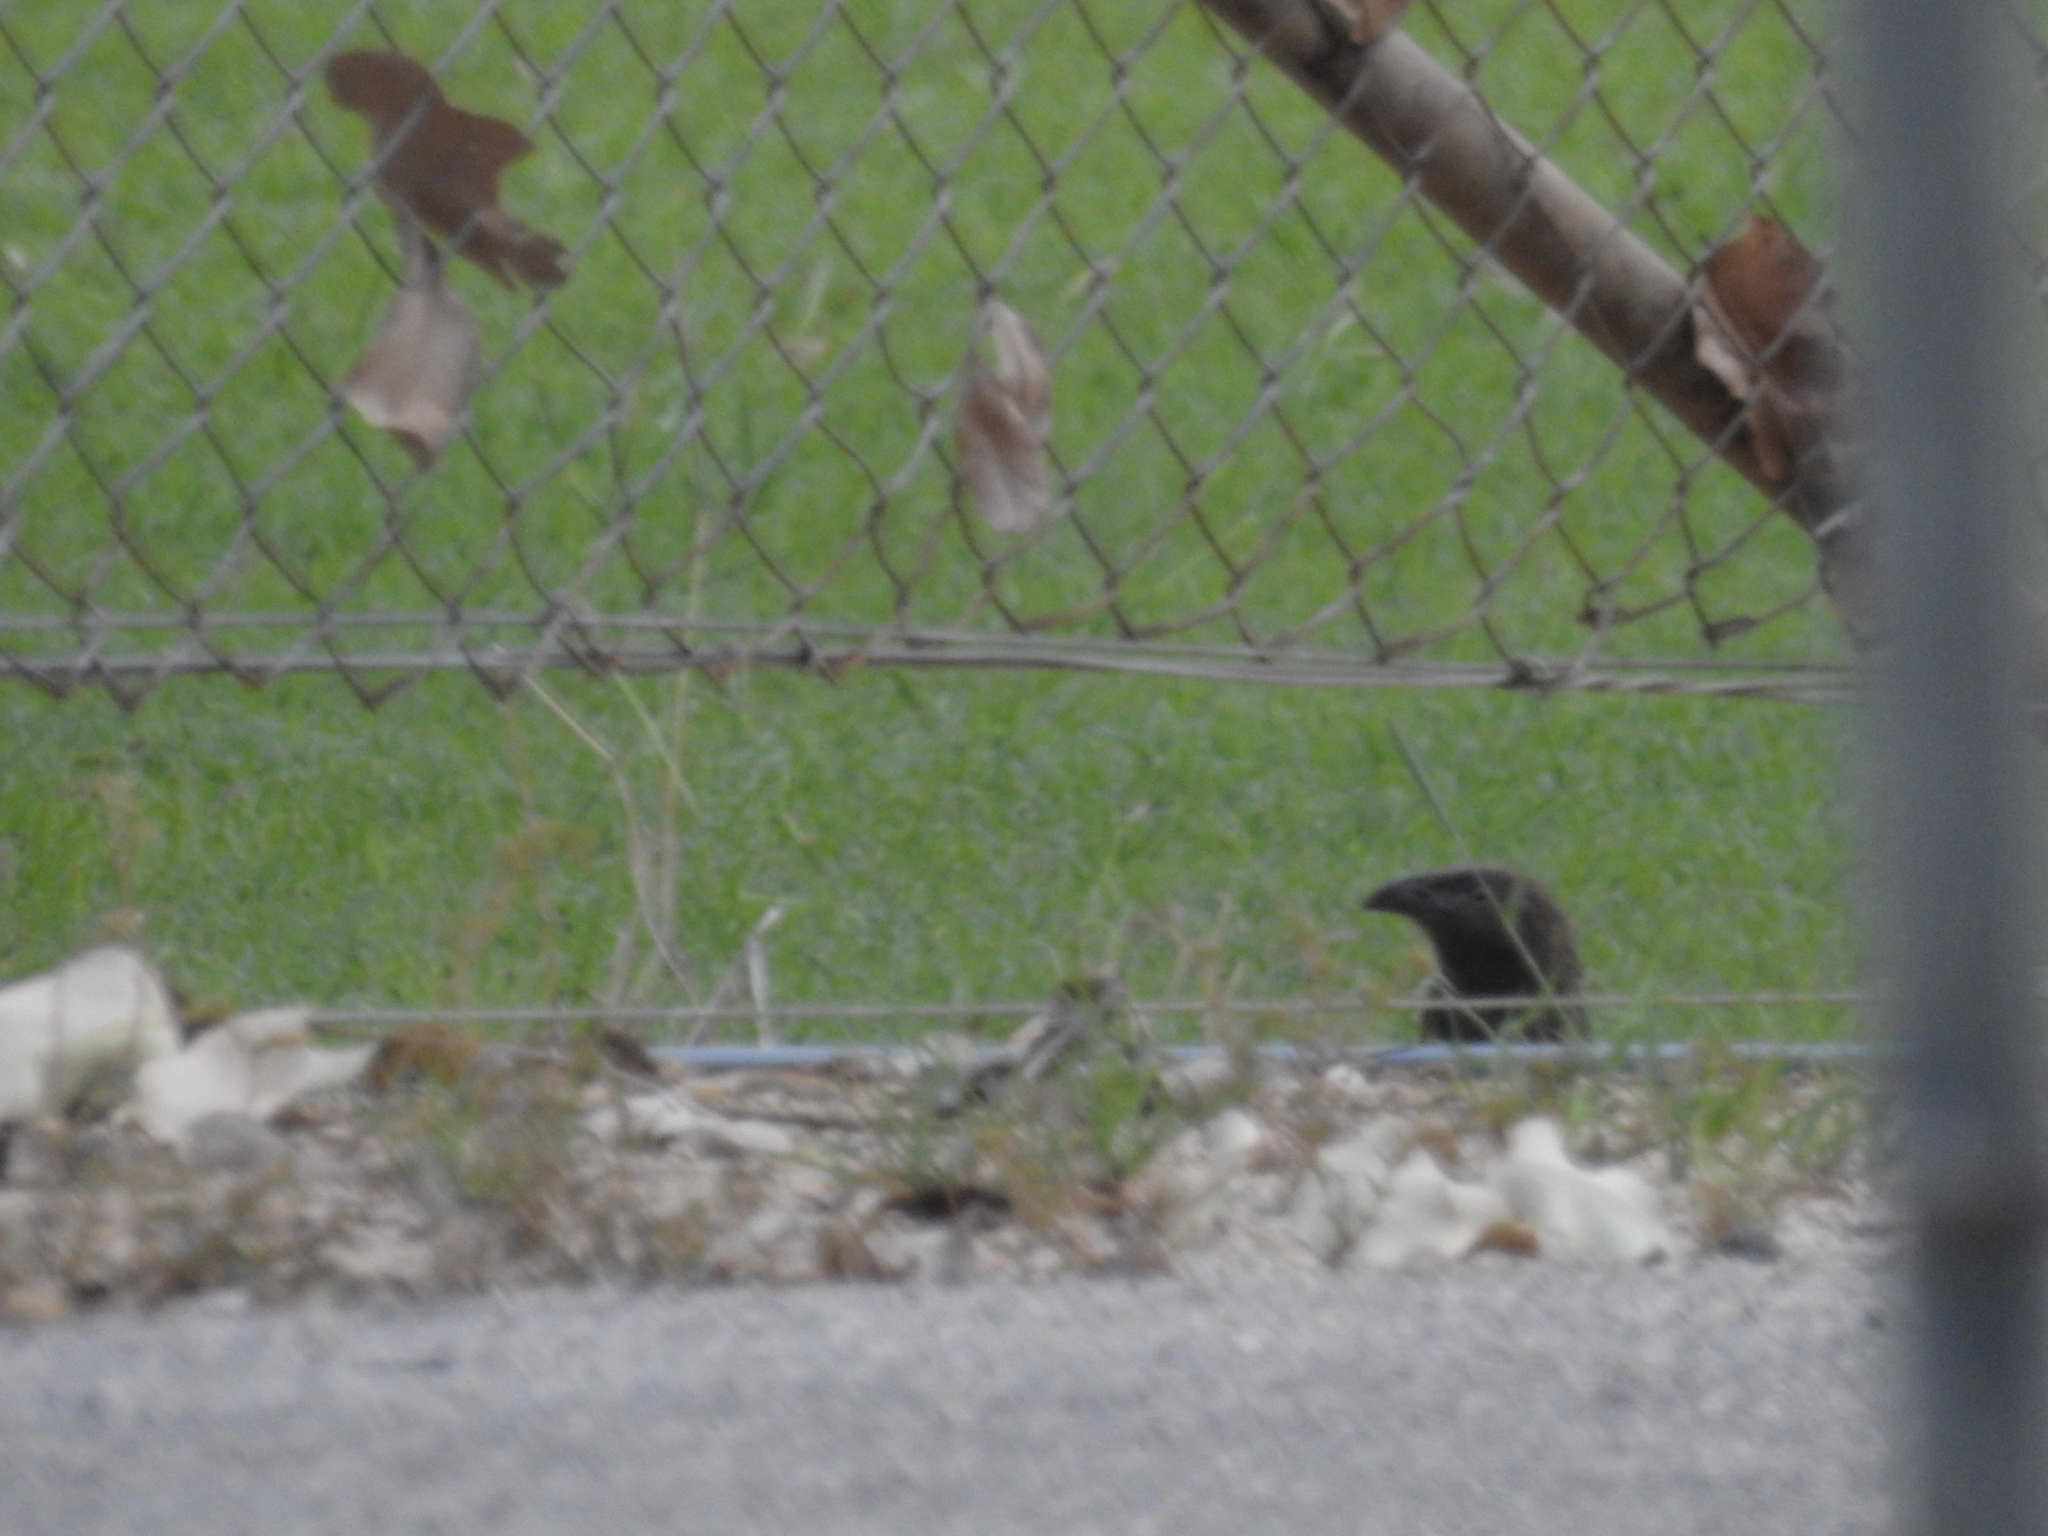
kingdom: Animalia
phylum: Chordata
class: Aves
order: Cuculiformes
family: Cuculidae
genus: Centropus
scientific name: Centropus phasianinus
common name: Pheasant coucal
